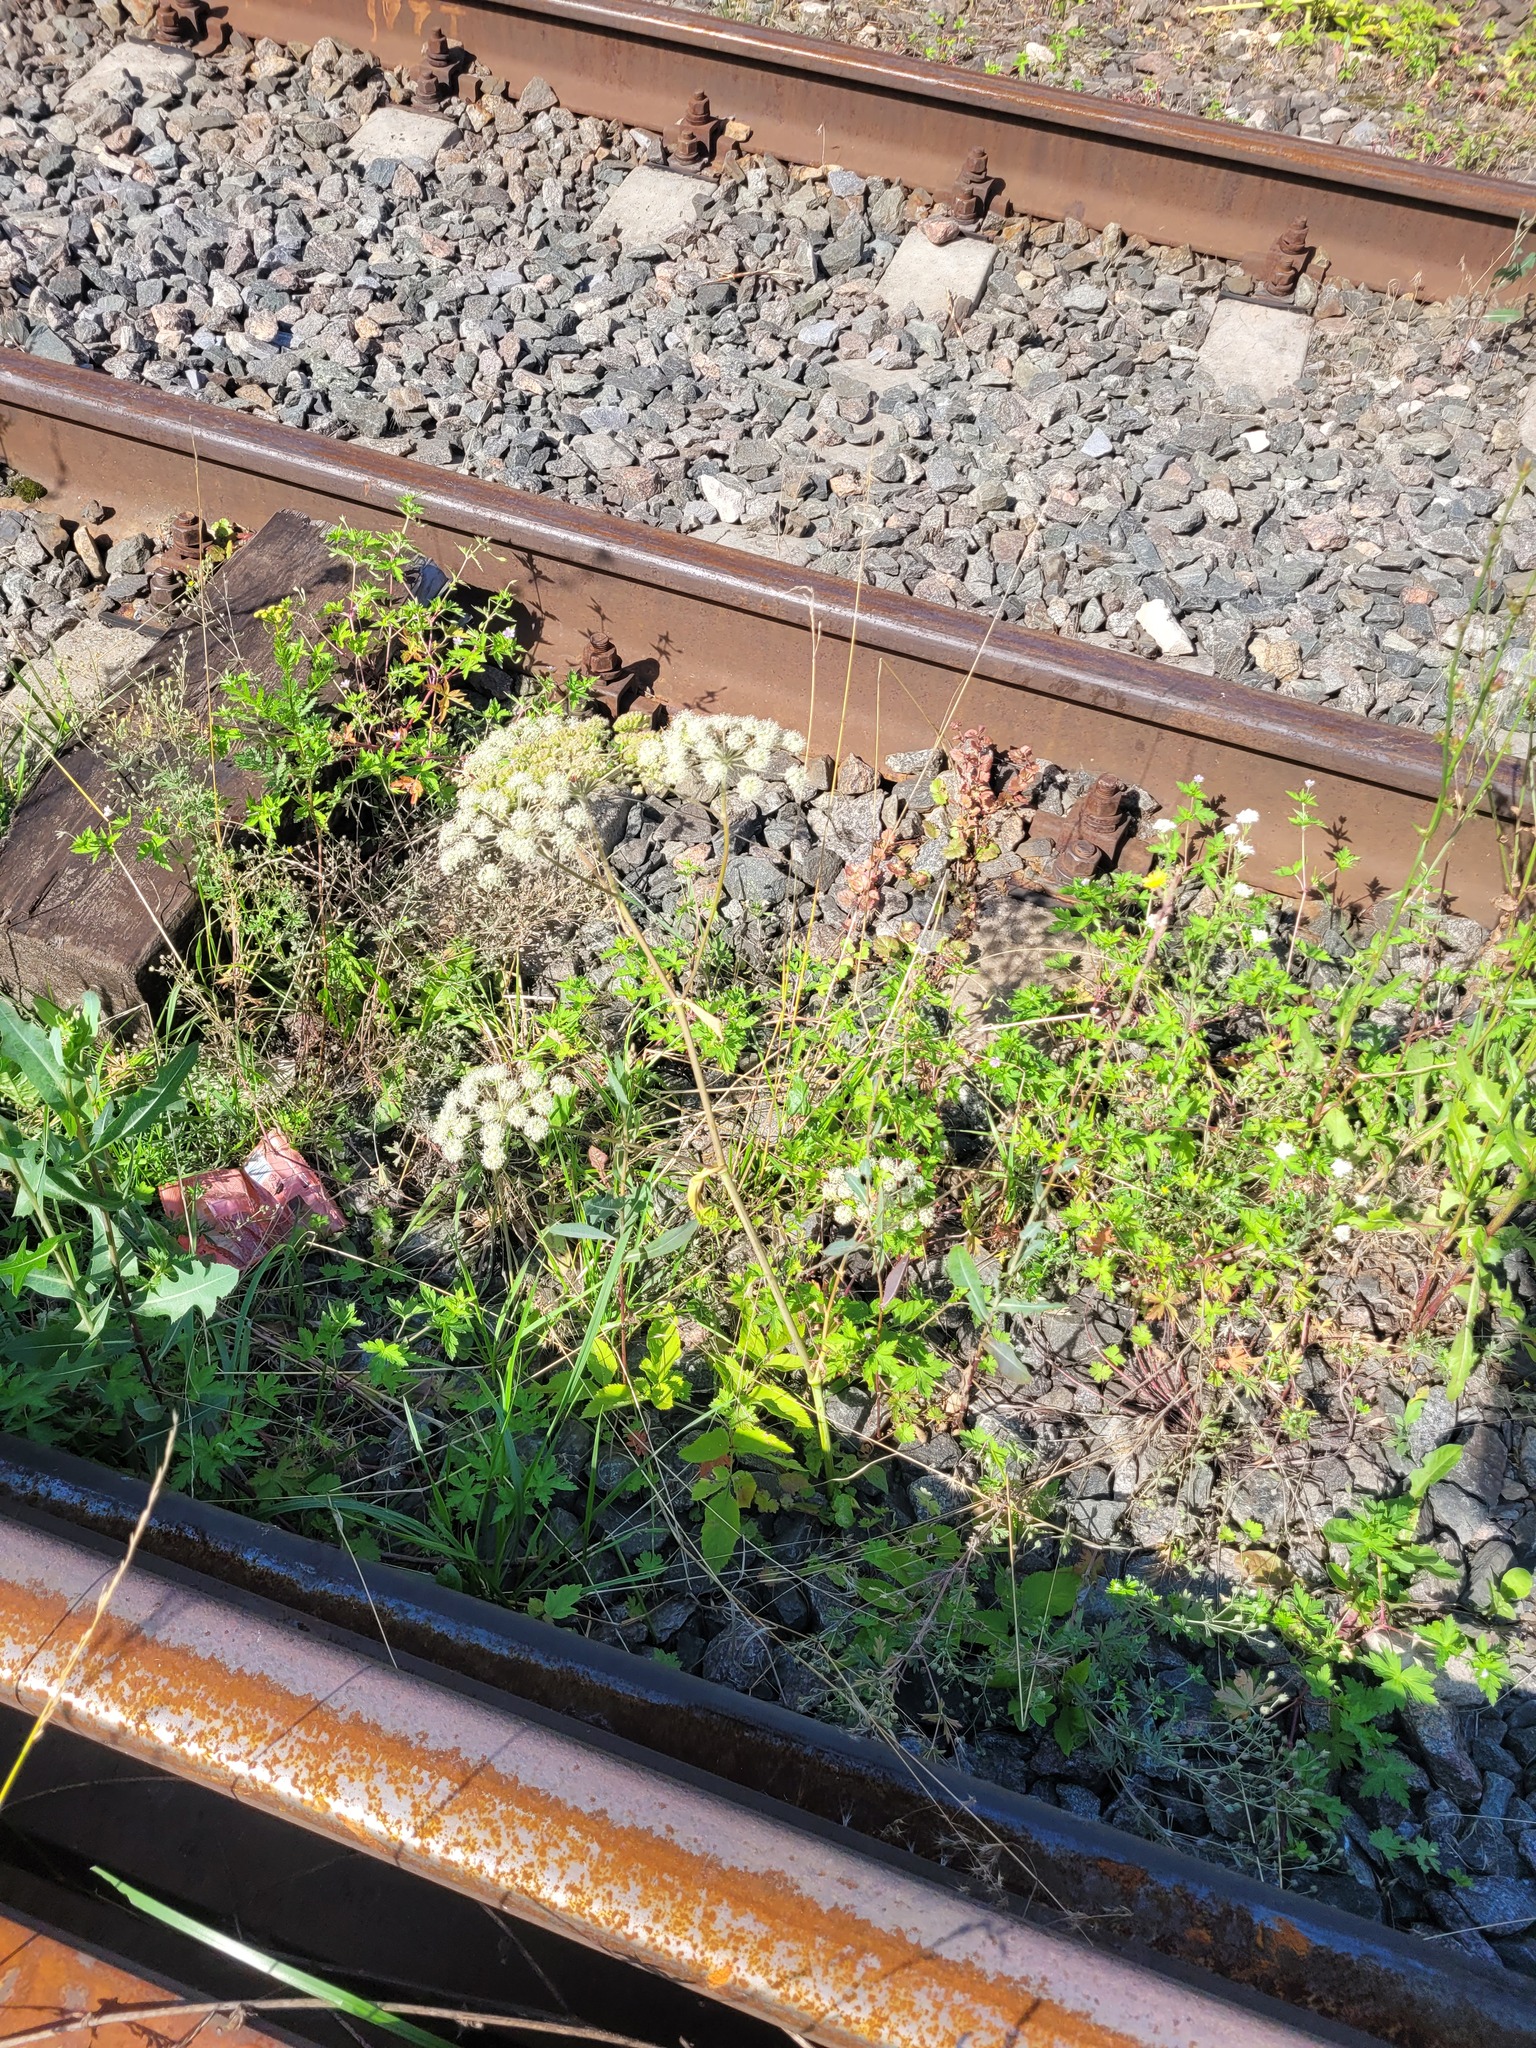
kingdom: Plantae
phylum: Tracheophyta
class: Magnoliopsida
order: Apiales
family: Apiaceae
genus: Angelica
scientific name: Angelica sylvestris
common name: Wild angelica
